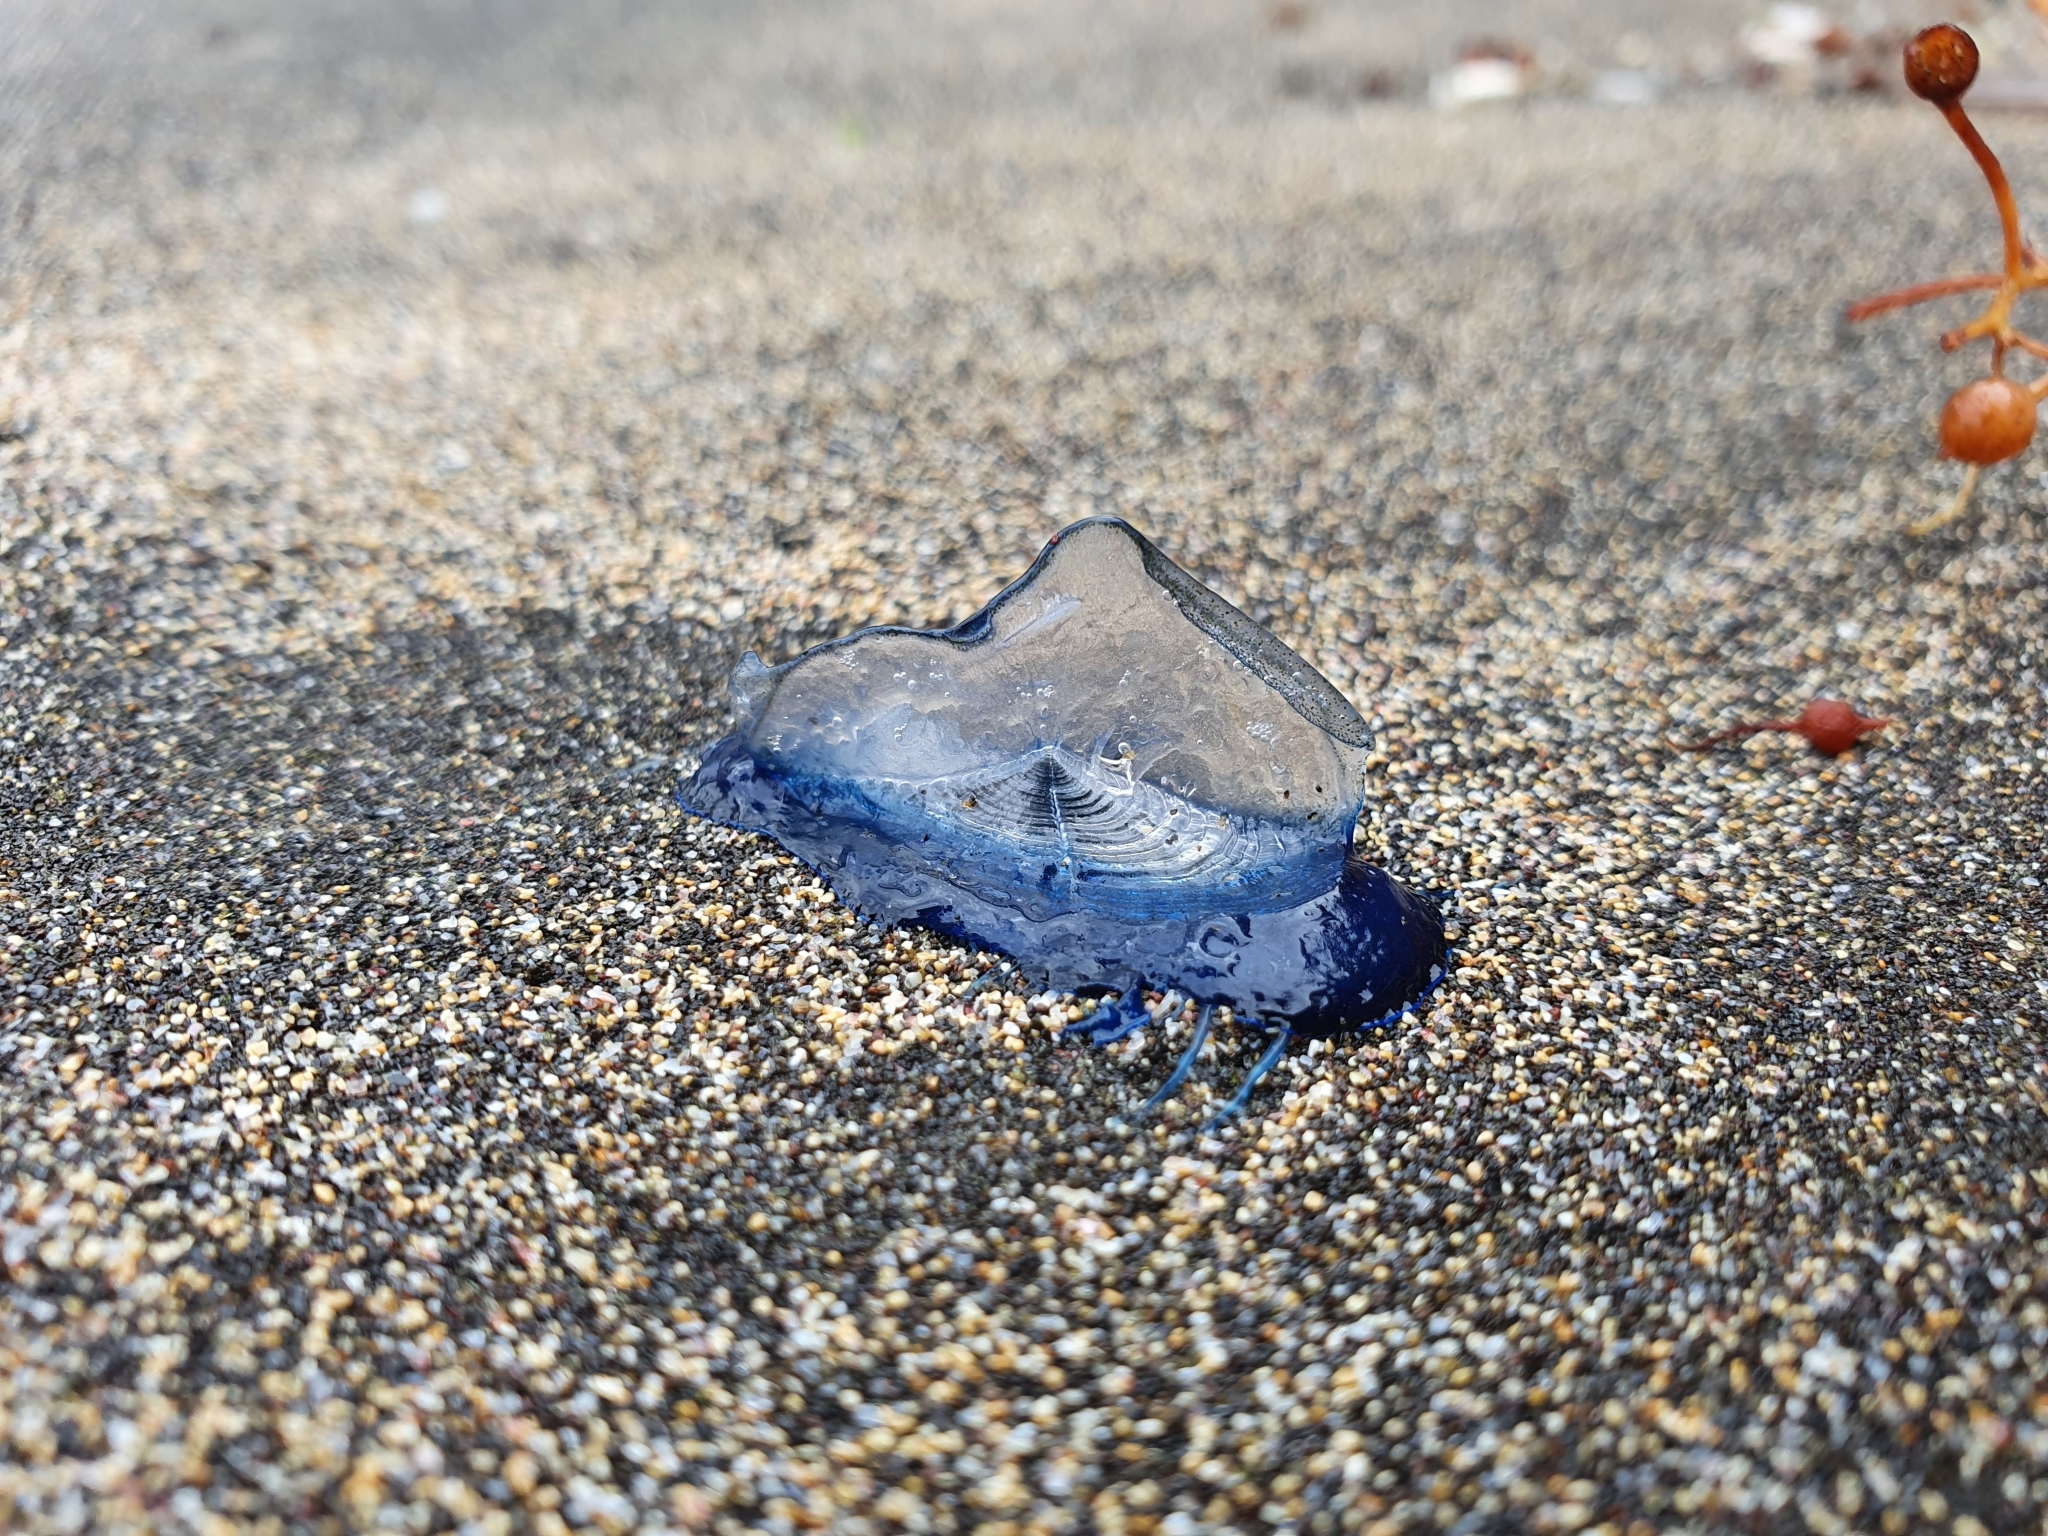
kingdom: Animalia
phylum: Cnidaria
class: Hydrozoa
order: Anthoathecata
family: Porpitidae
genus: Velella
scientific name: Velella velella
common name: By-the-wind-sailor
